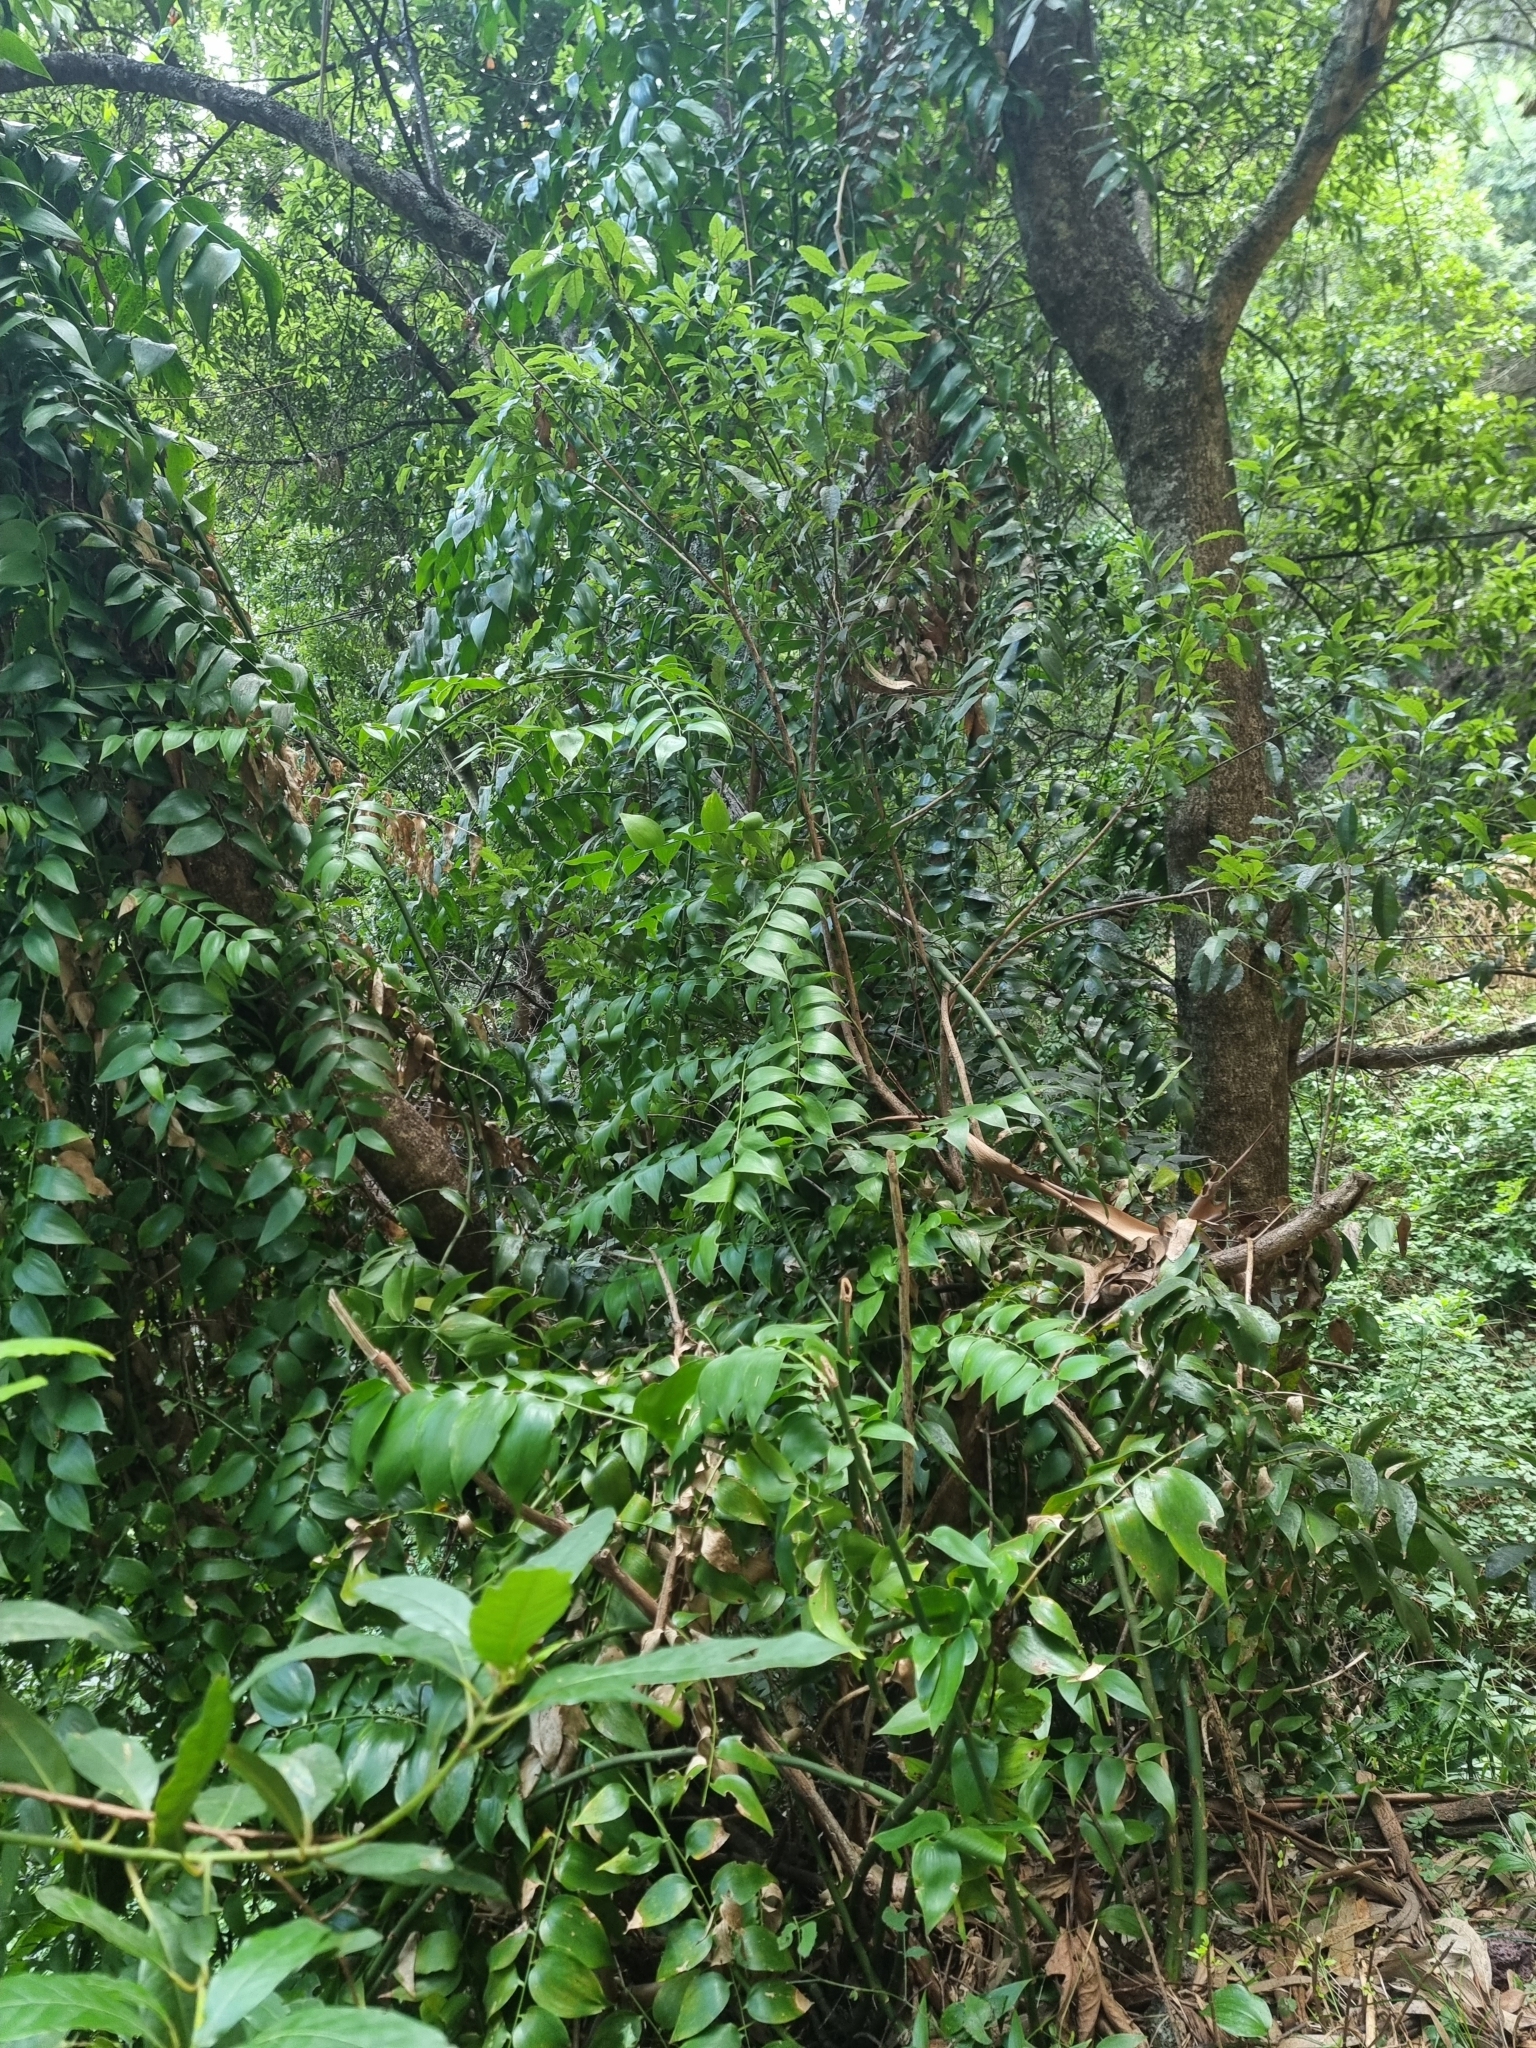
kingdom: Plantae
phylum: Tracheophyta
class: Liliopsida
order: Asparagales
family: Asparagaceae
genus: Semele
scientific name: Semele androgyna
